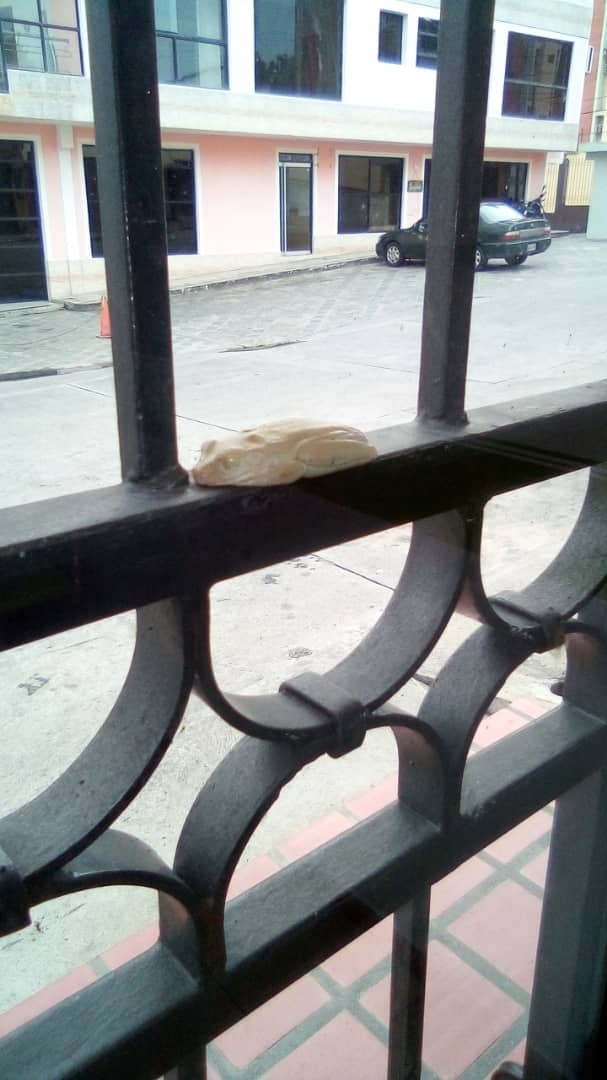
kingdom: Animalia
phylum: Chordata
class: Amphibia
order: Anura
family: Hylidae
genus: Boana
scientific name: Boana platanera
